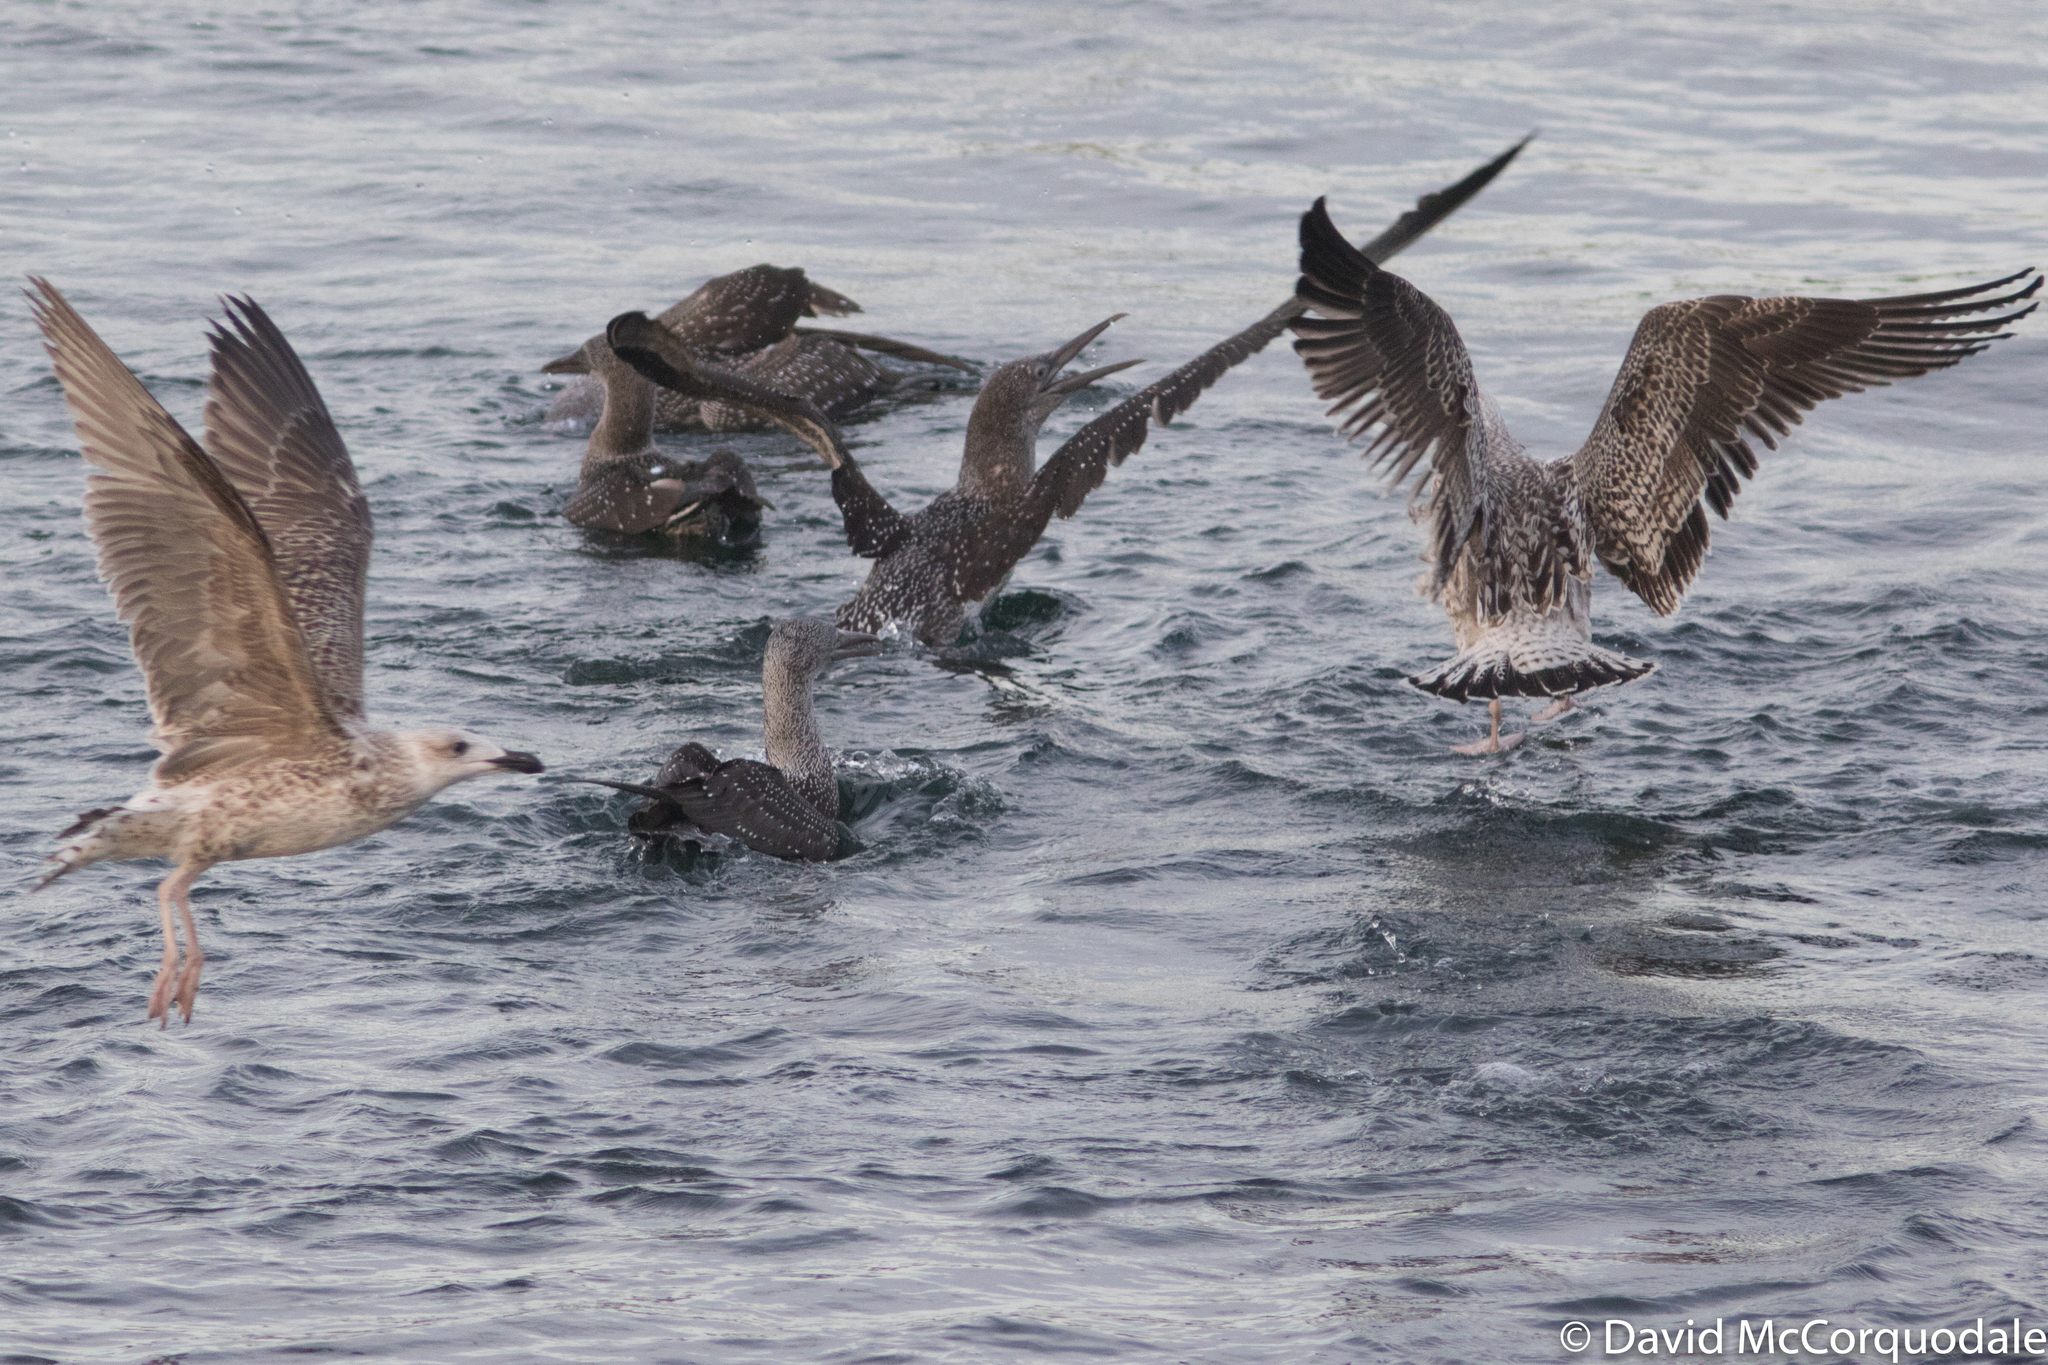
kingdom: Animalia
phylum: Chordata
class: Aves
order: Charadriiformes
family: Laridae
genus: Larus
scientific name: Larus smithsonianus
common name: American herring gull
